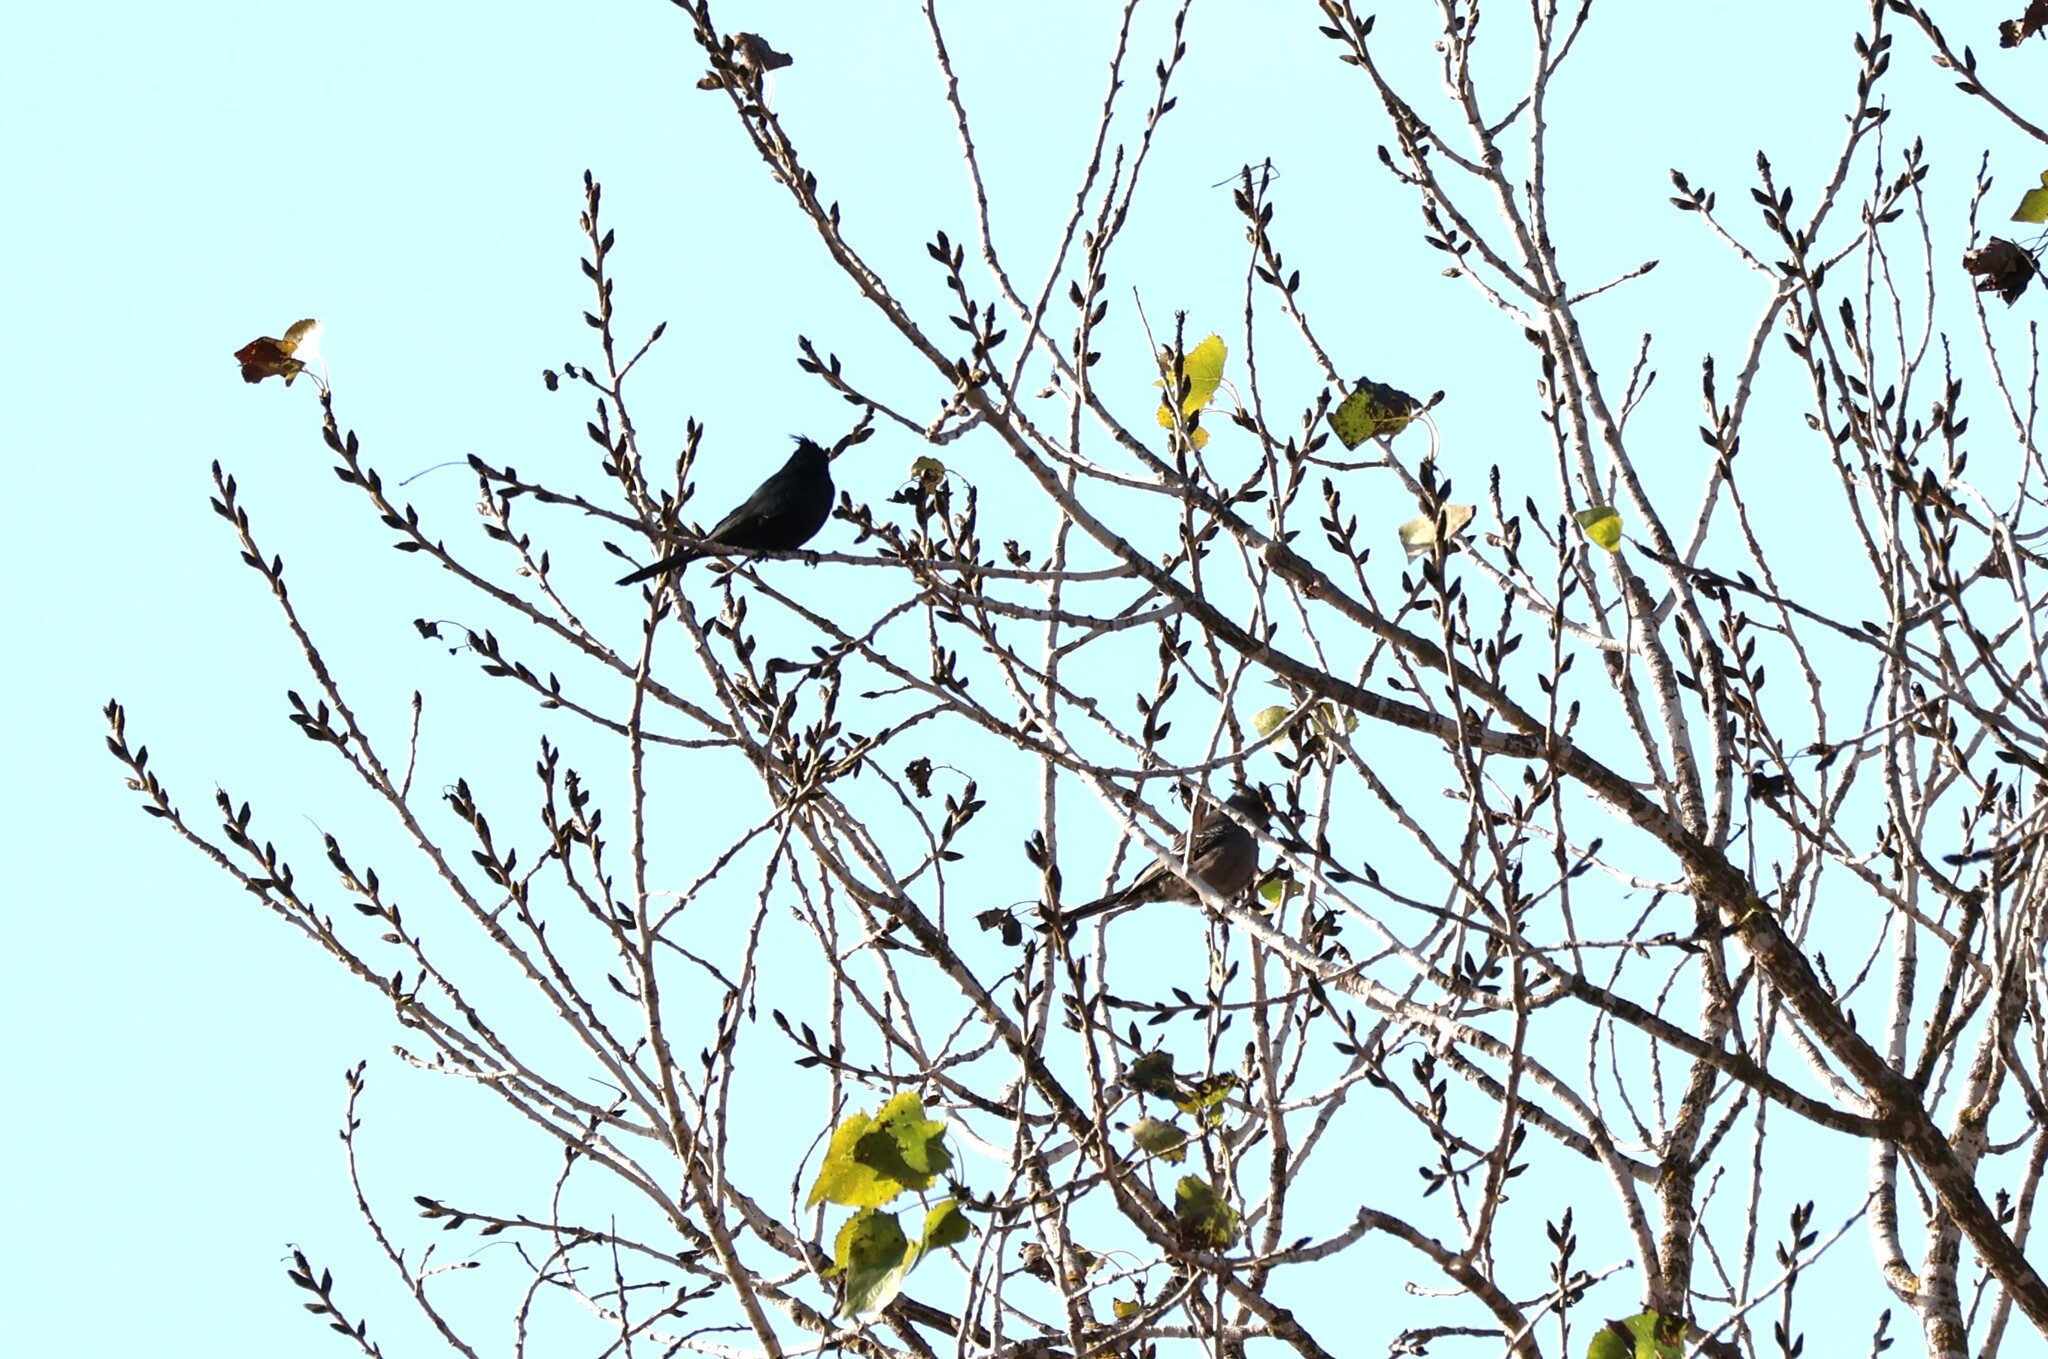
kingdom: Animalia
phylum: Chordata
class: Aves
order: Passeriformes
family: Ptilogonatidae
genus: Phainopepla
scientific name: Phainopepla nitens
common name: Phainopepla
